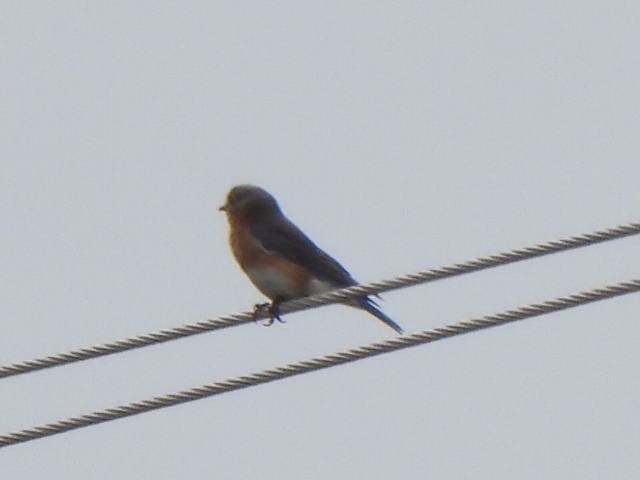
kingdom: Animalia
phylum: Chordata
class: Aves
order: Passeriformes
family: Turdidae
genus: Sialia
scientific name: Sialia sialis
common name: Eastern bluebird
